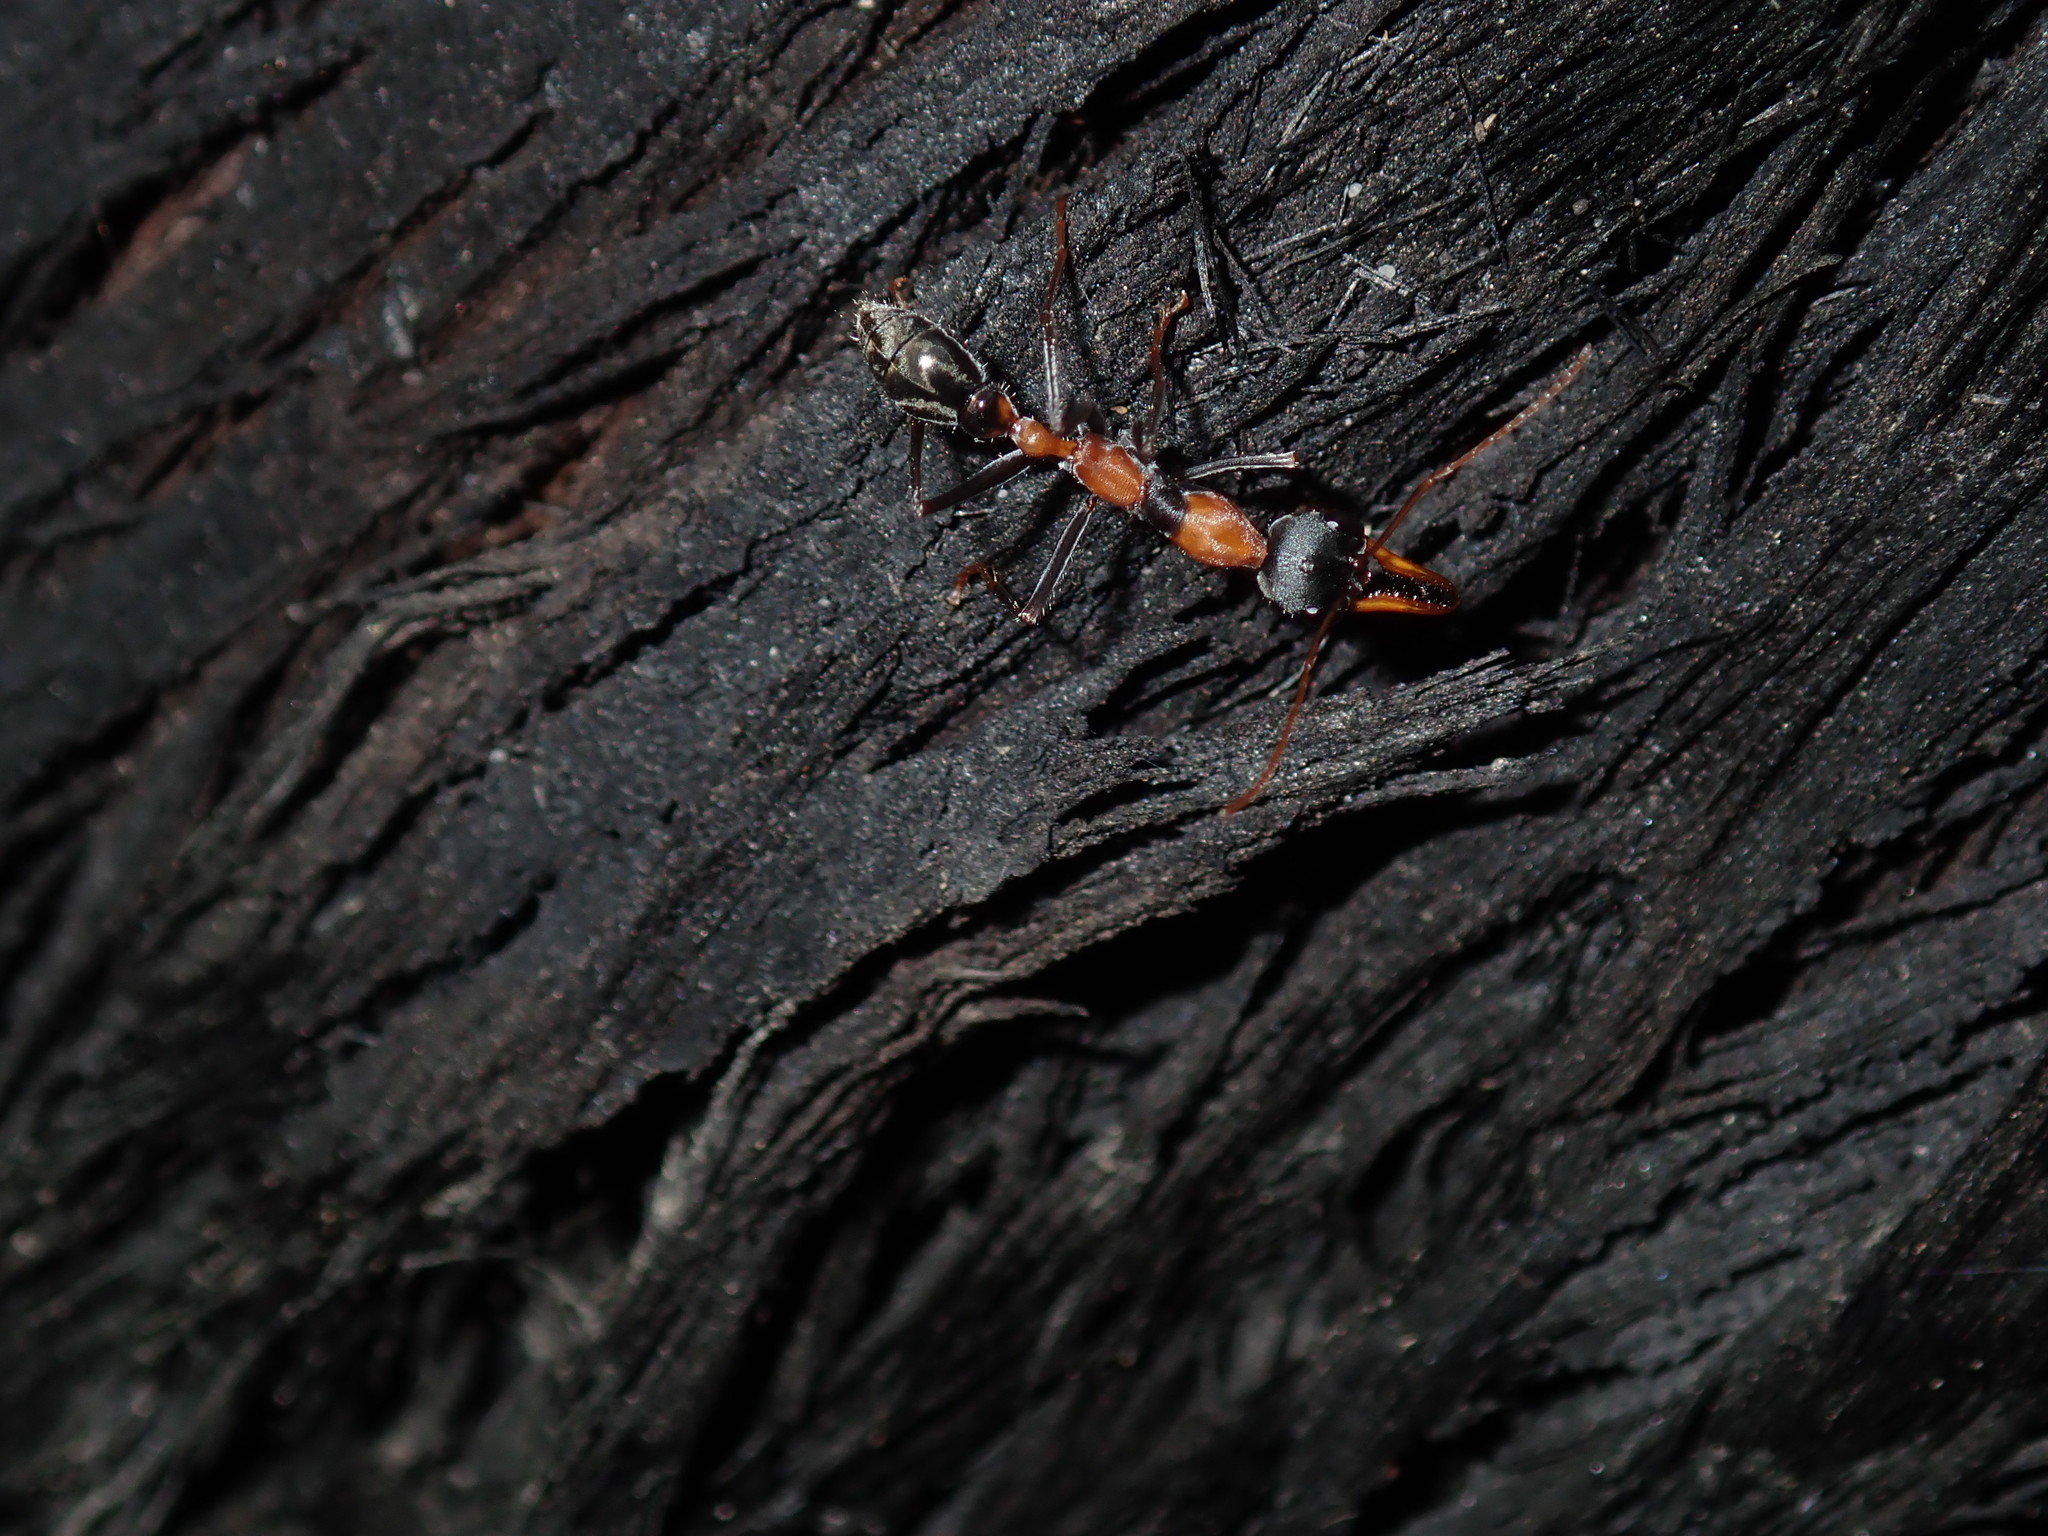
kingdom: Animalia
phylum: Arthropoda
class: Insecta
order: Hymenoptera
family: Formicidae
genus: Myrmecia
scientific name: Myrmecia nigrocincta
